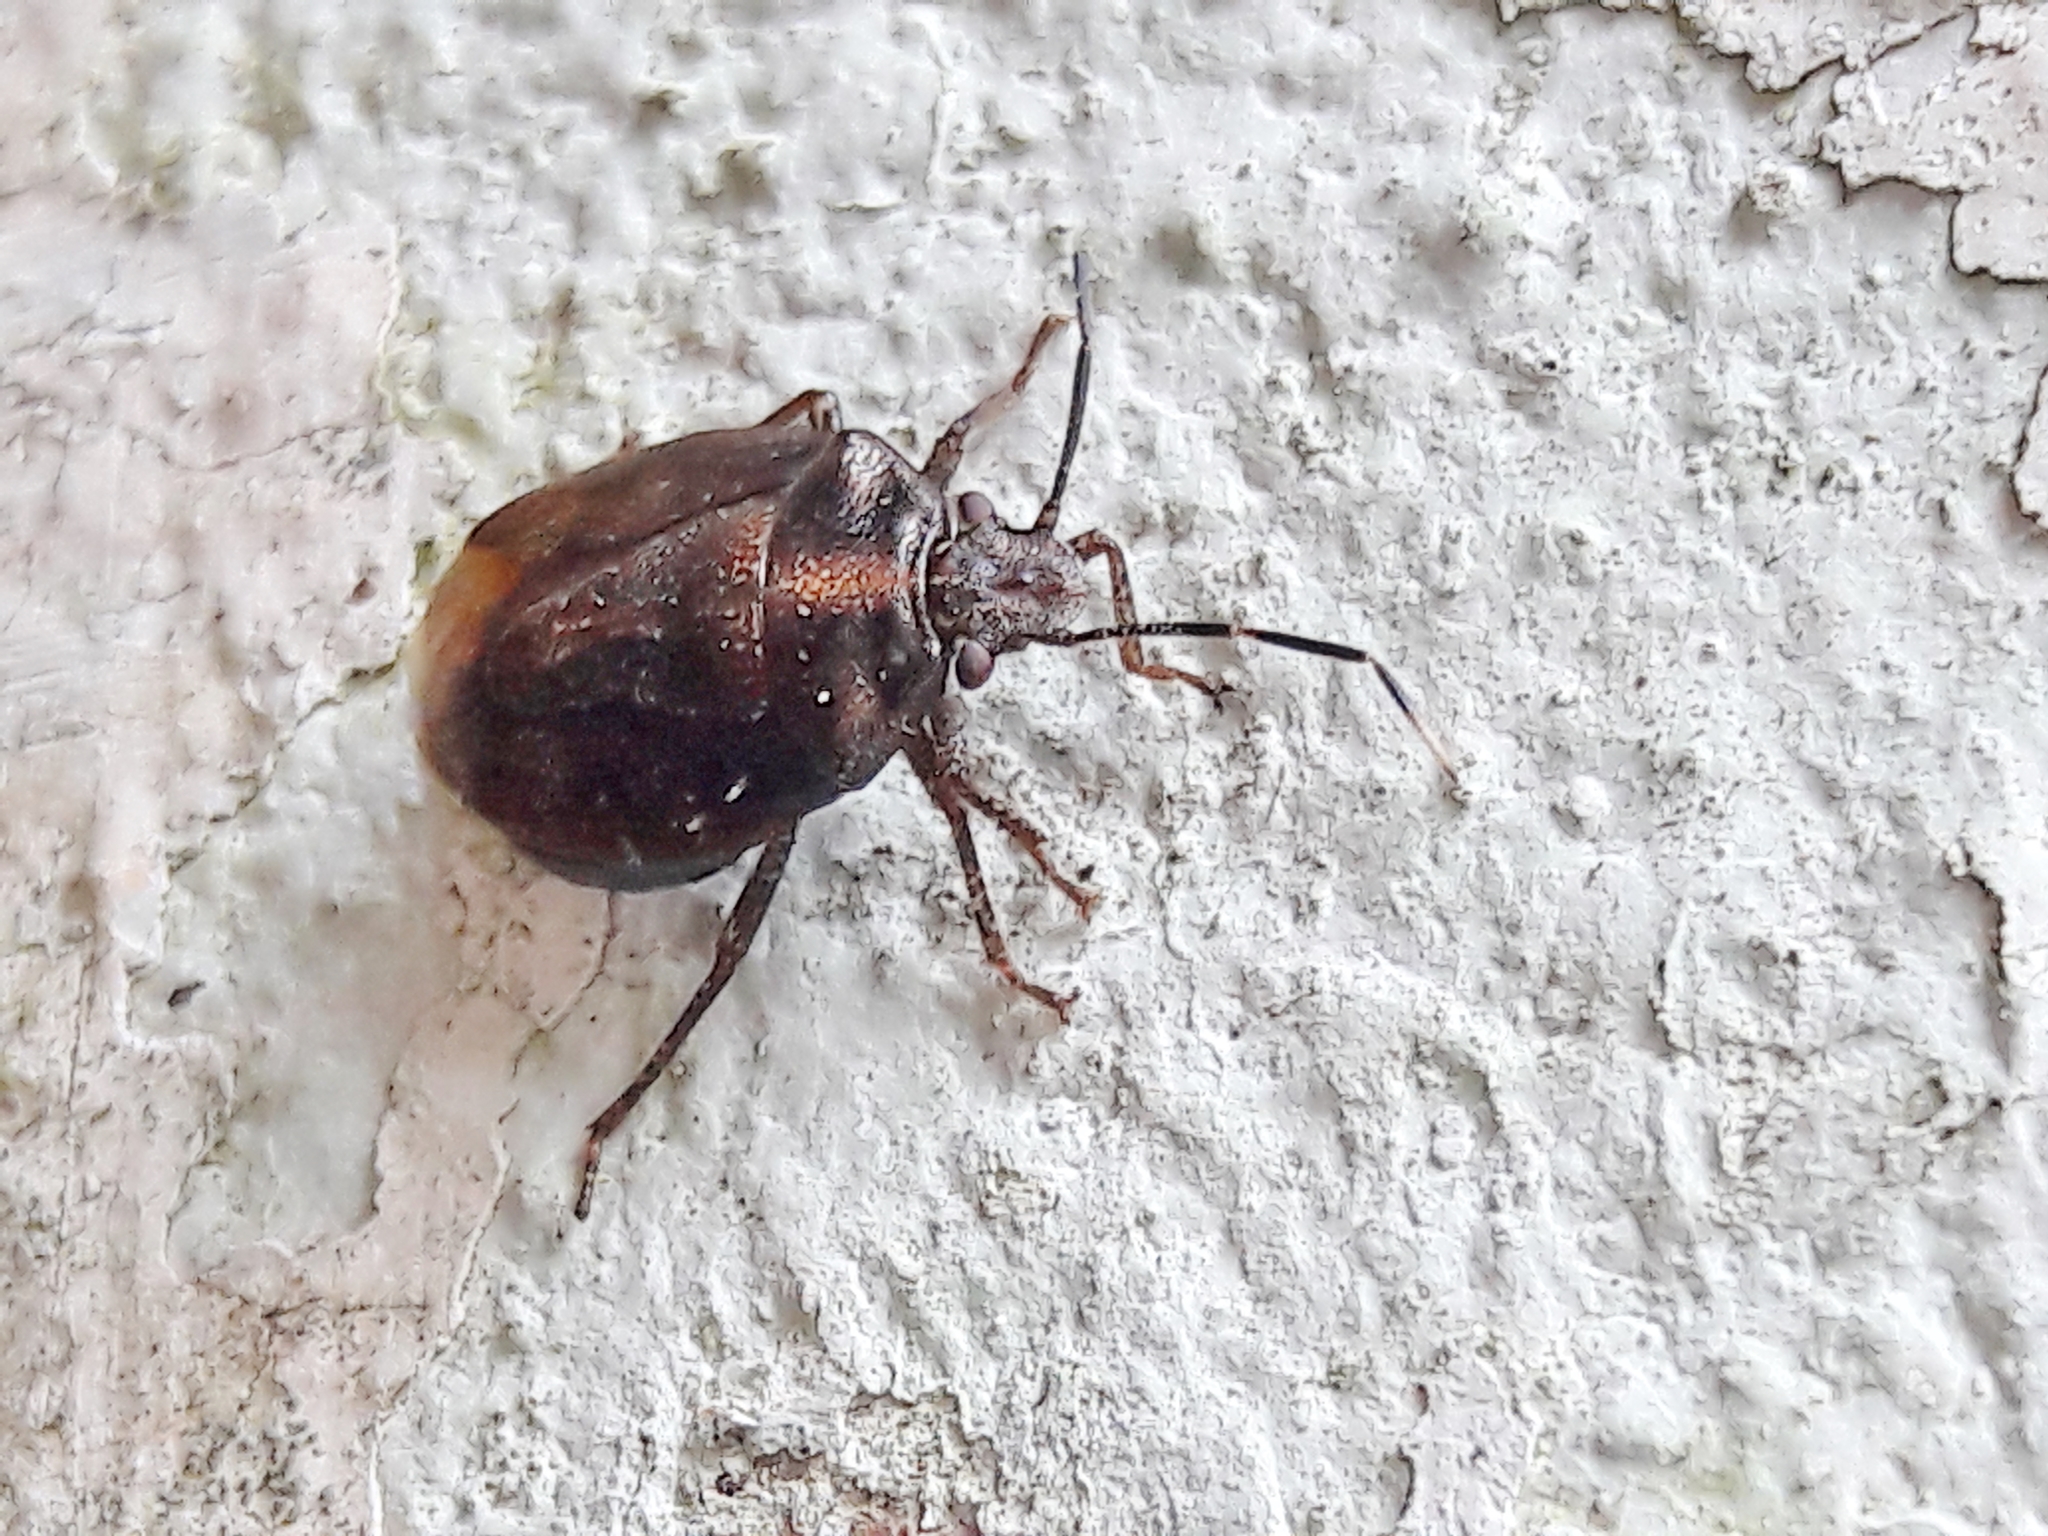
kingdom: Animalia
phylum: Arthropoda
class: Insecta
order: Hemiptera
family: Pentatomidae
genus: Antiteuchus
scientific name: Antiteuchus tripterus
